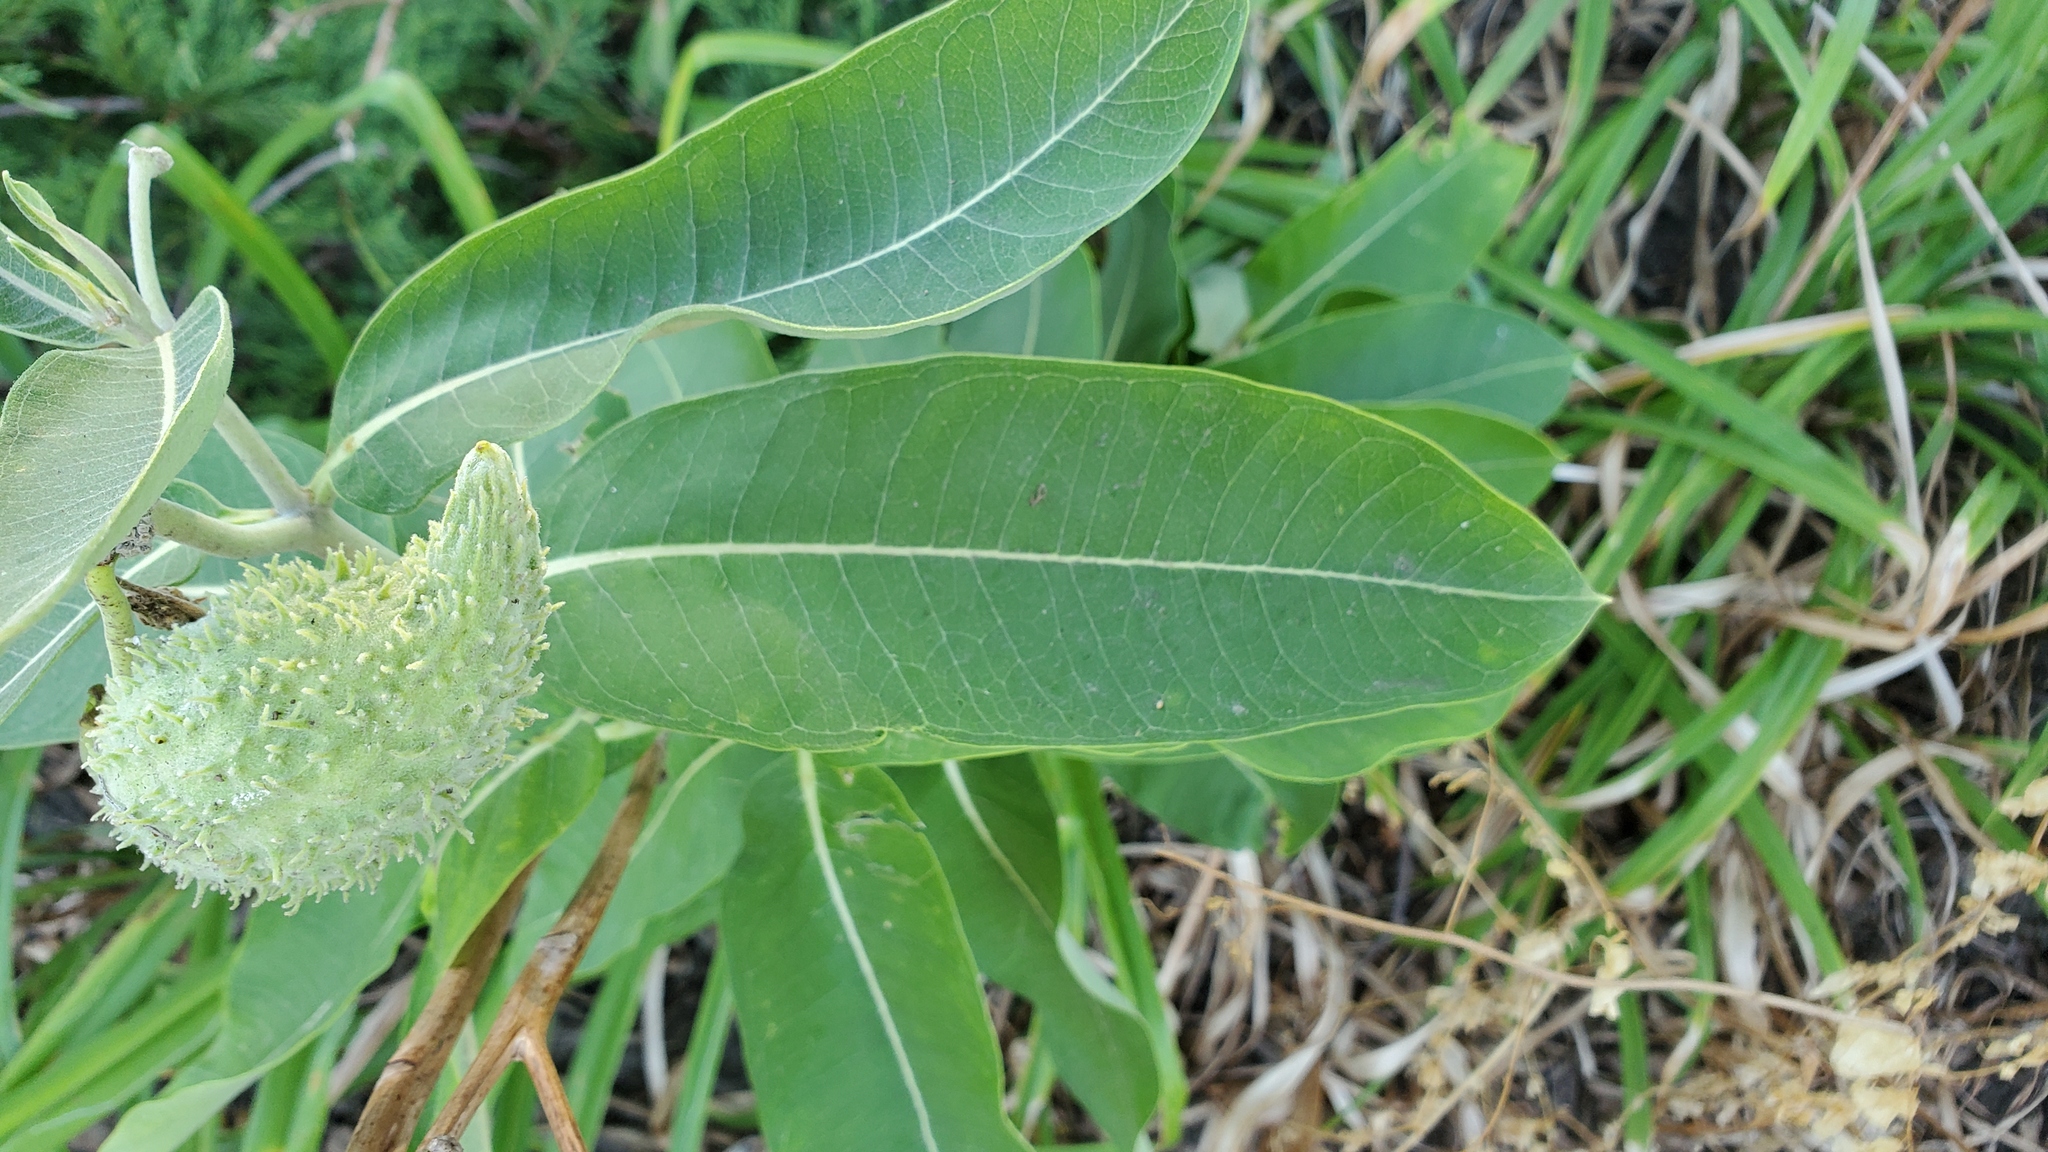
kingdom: Plantae
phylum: Tracheophyta
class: Magnoliopsida
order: Gentianales
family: Apocynaceae
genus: Asclepias
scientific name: Asclepias syriaca
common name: Common milkweed
